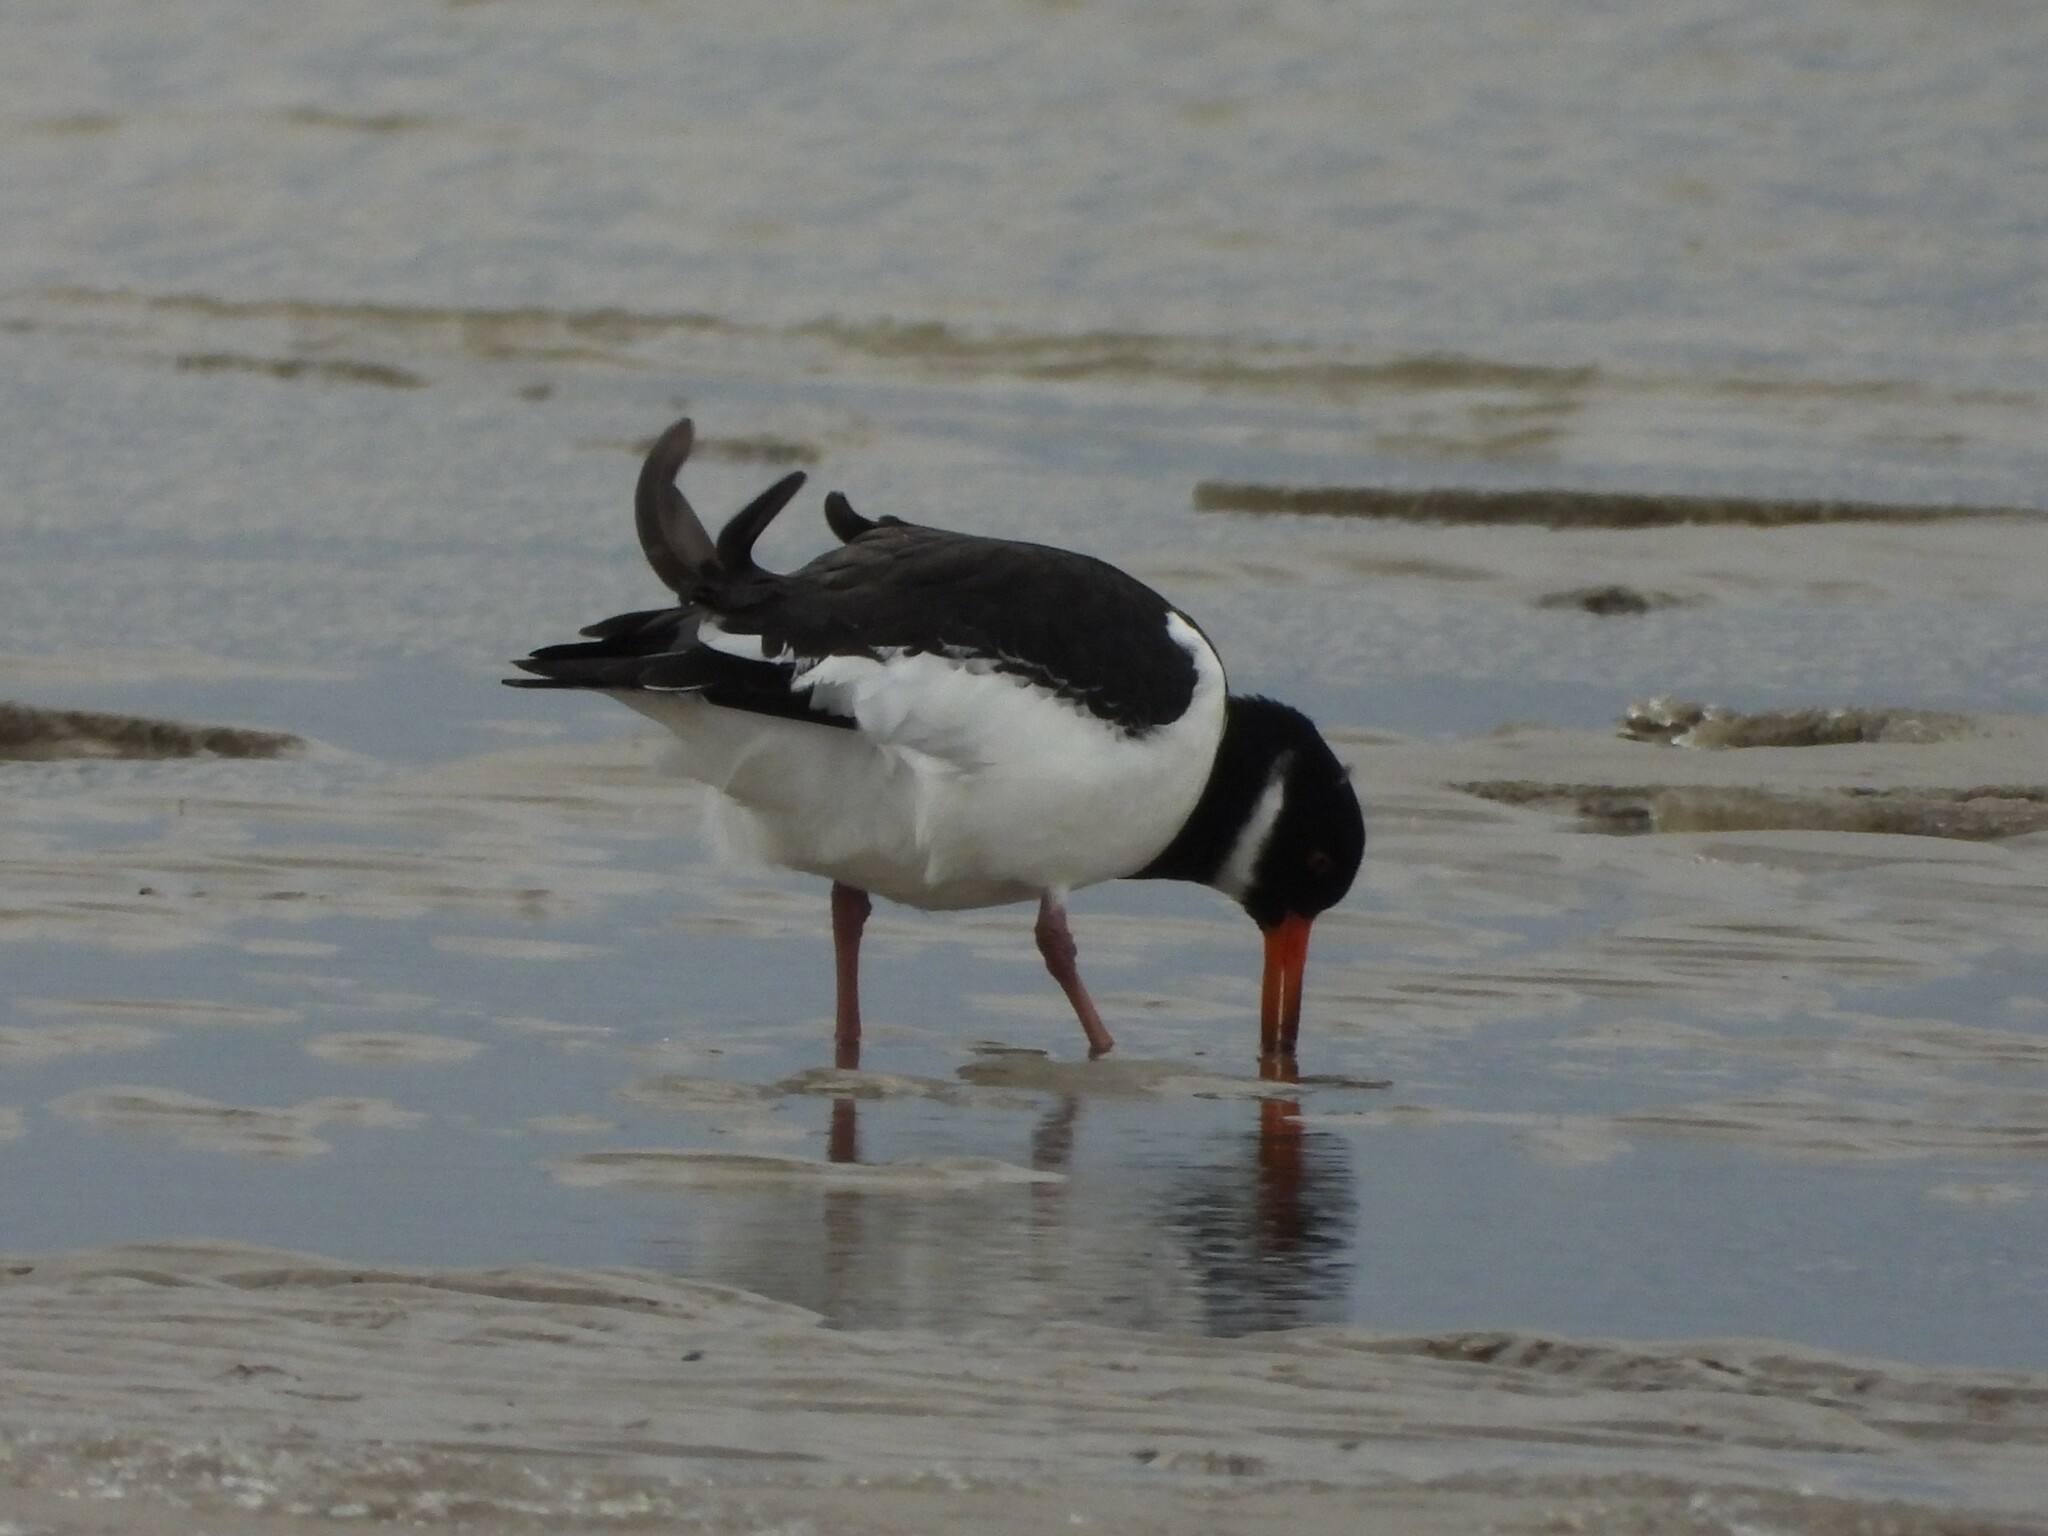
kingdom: Animalia
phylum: Chordata
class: Aves
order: Charadriiformes
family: Haematopodidae
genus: Haematopus
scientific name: Haematopus ostralegus
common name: Eurasian oystercatcher
